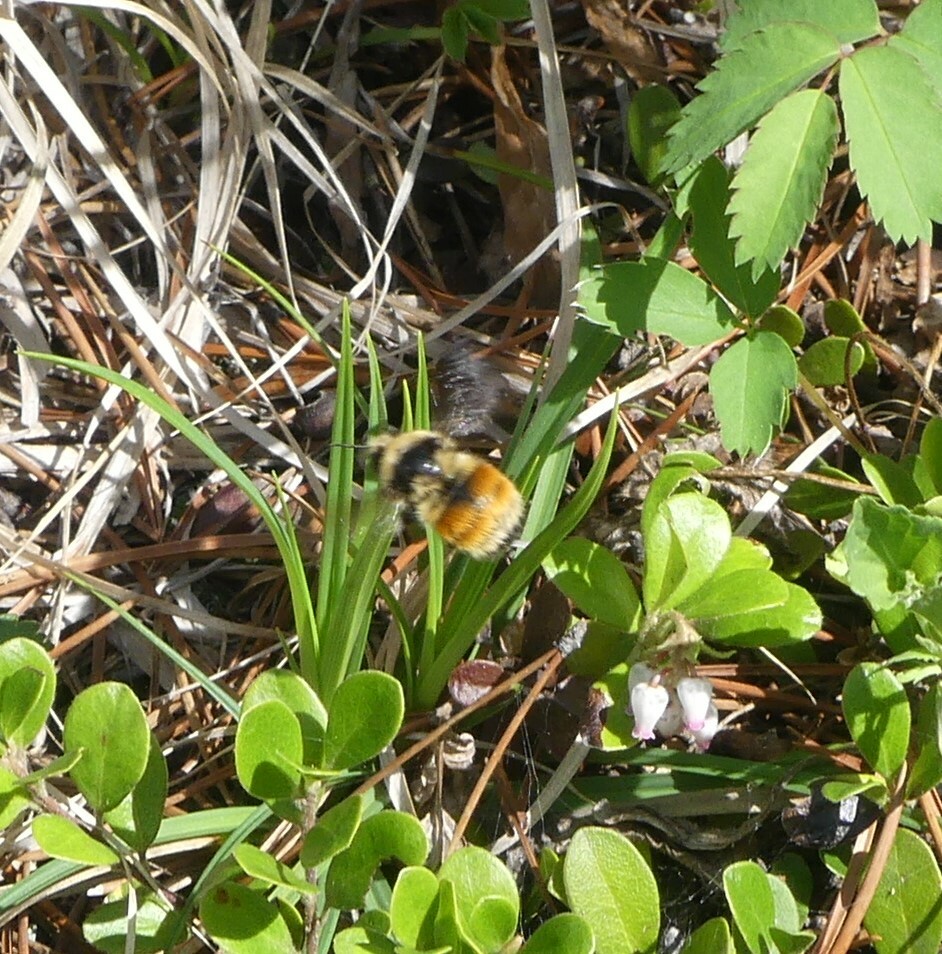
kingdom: Animalia
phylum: Arthropoda
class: Insecta
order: Hymenoptera
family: Apidae
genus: Bombus
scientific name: Bombus vancouverensis
